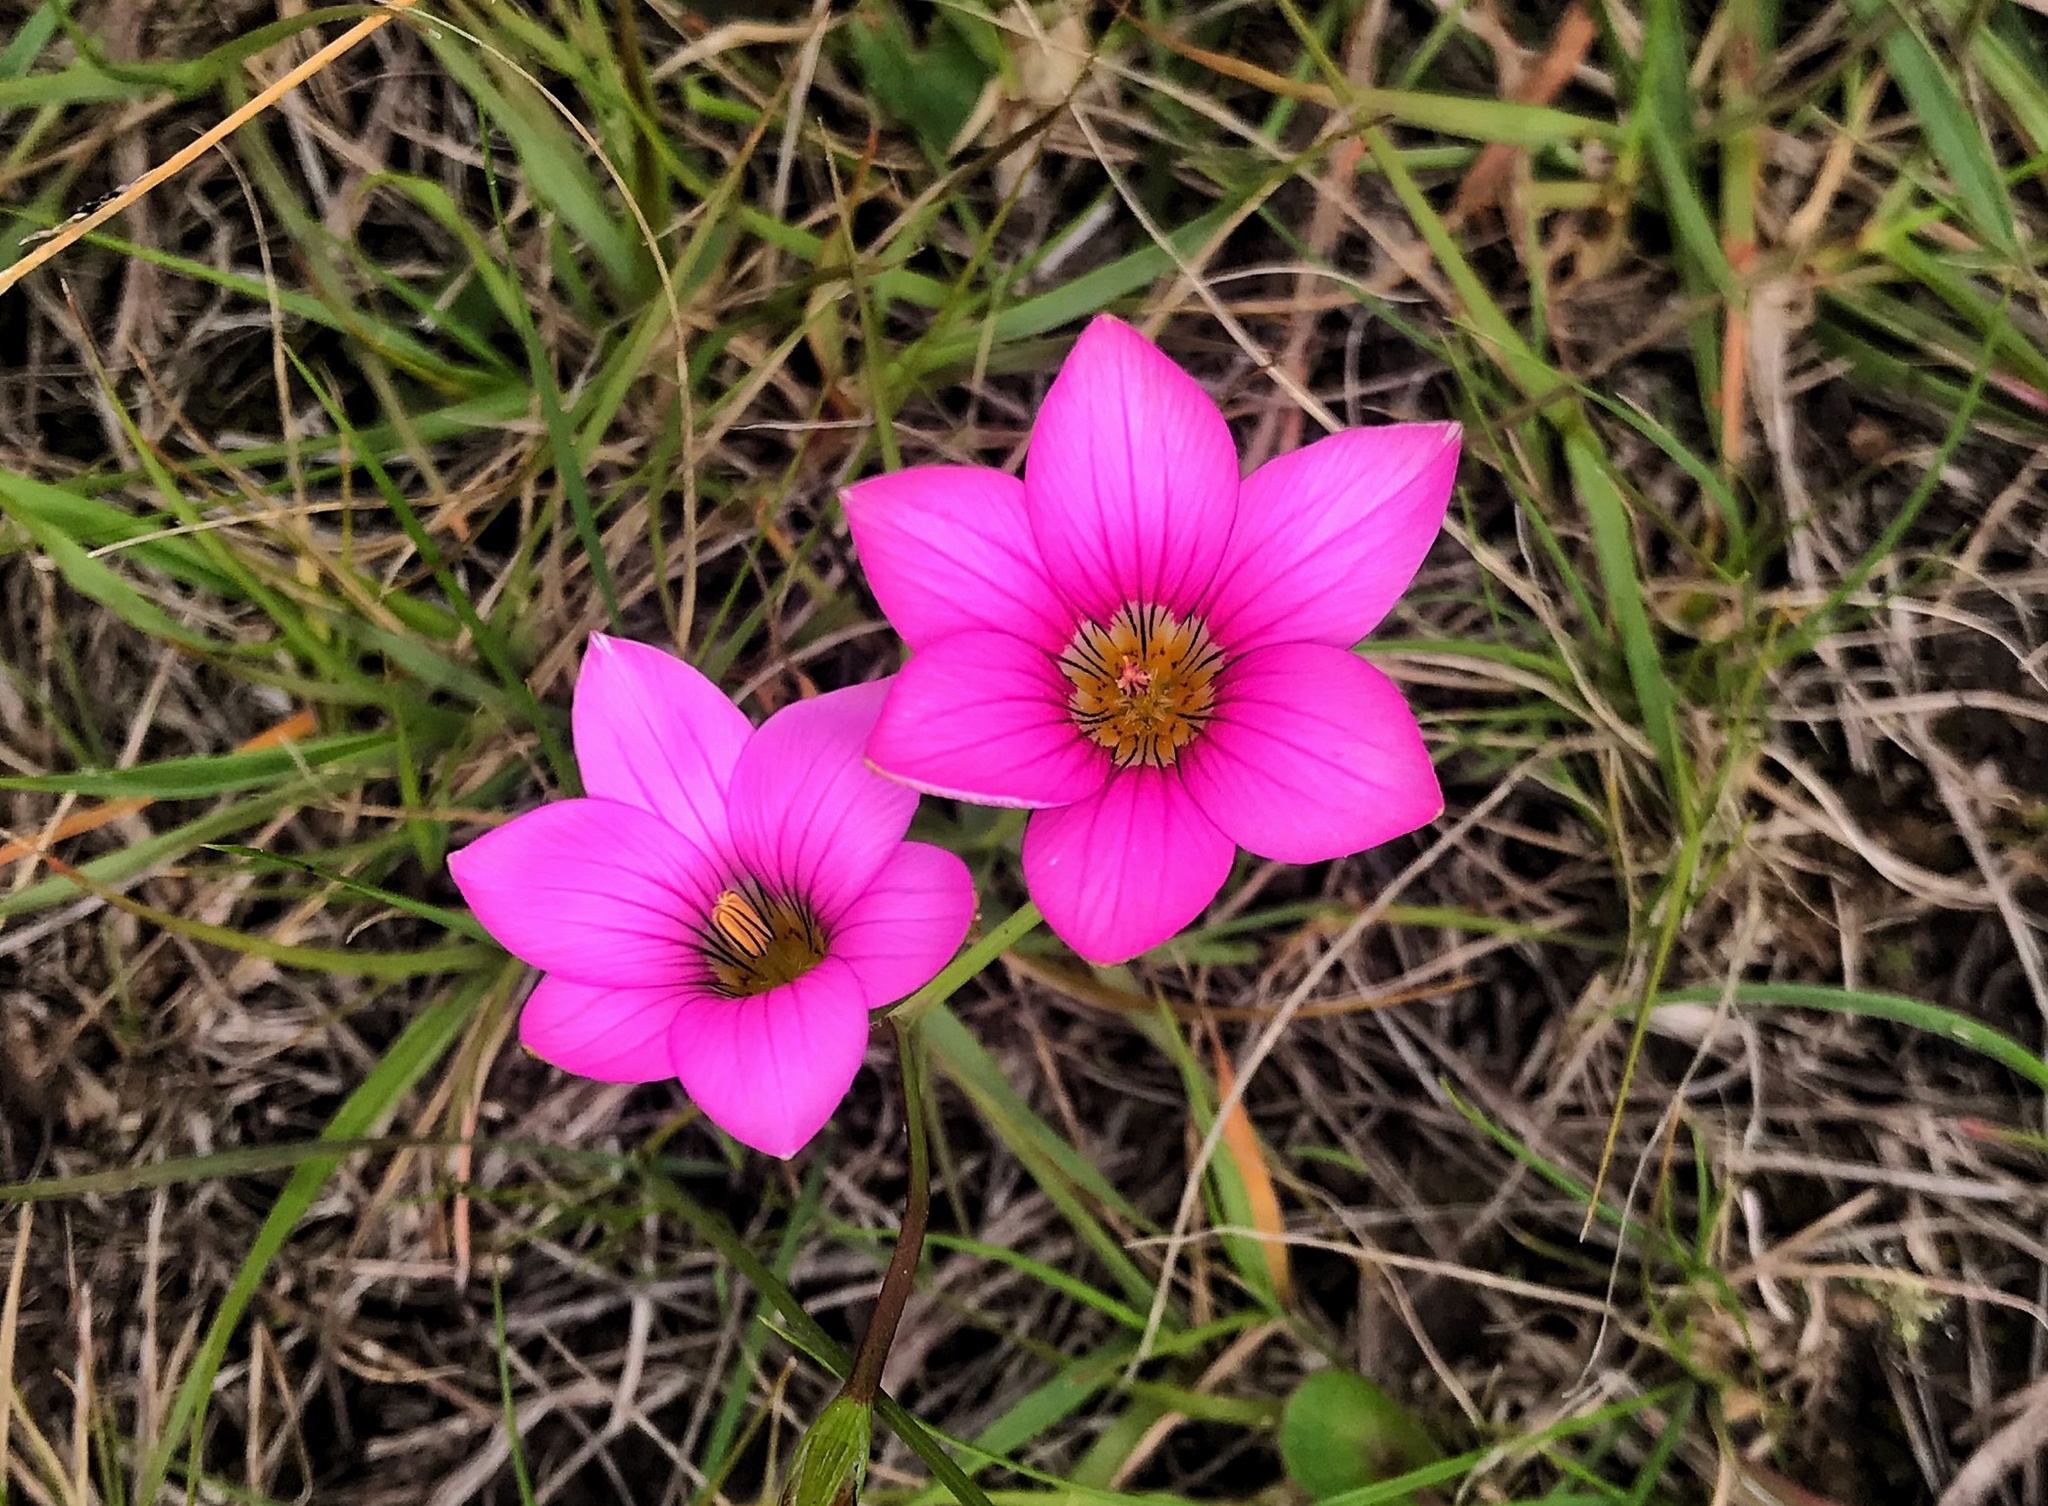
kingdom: Plantae
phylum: Tracheophyta
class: Liliopsida
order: Asparagales
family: Iridaceae
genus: Romulea
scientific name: Romulea rosea
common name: Oniongrass
